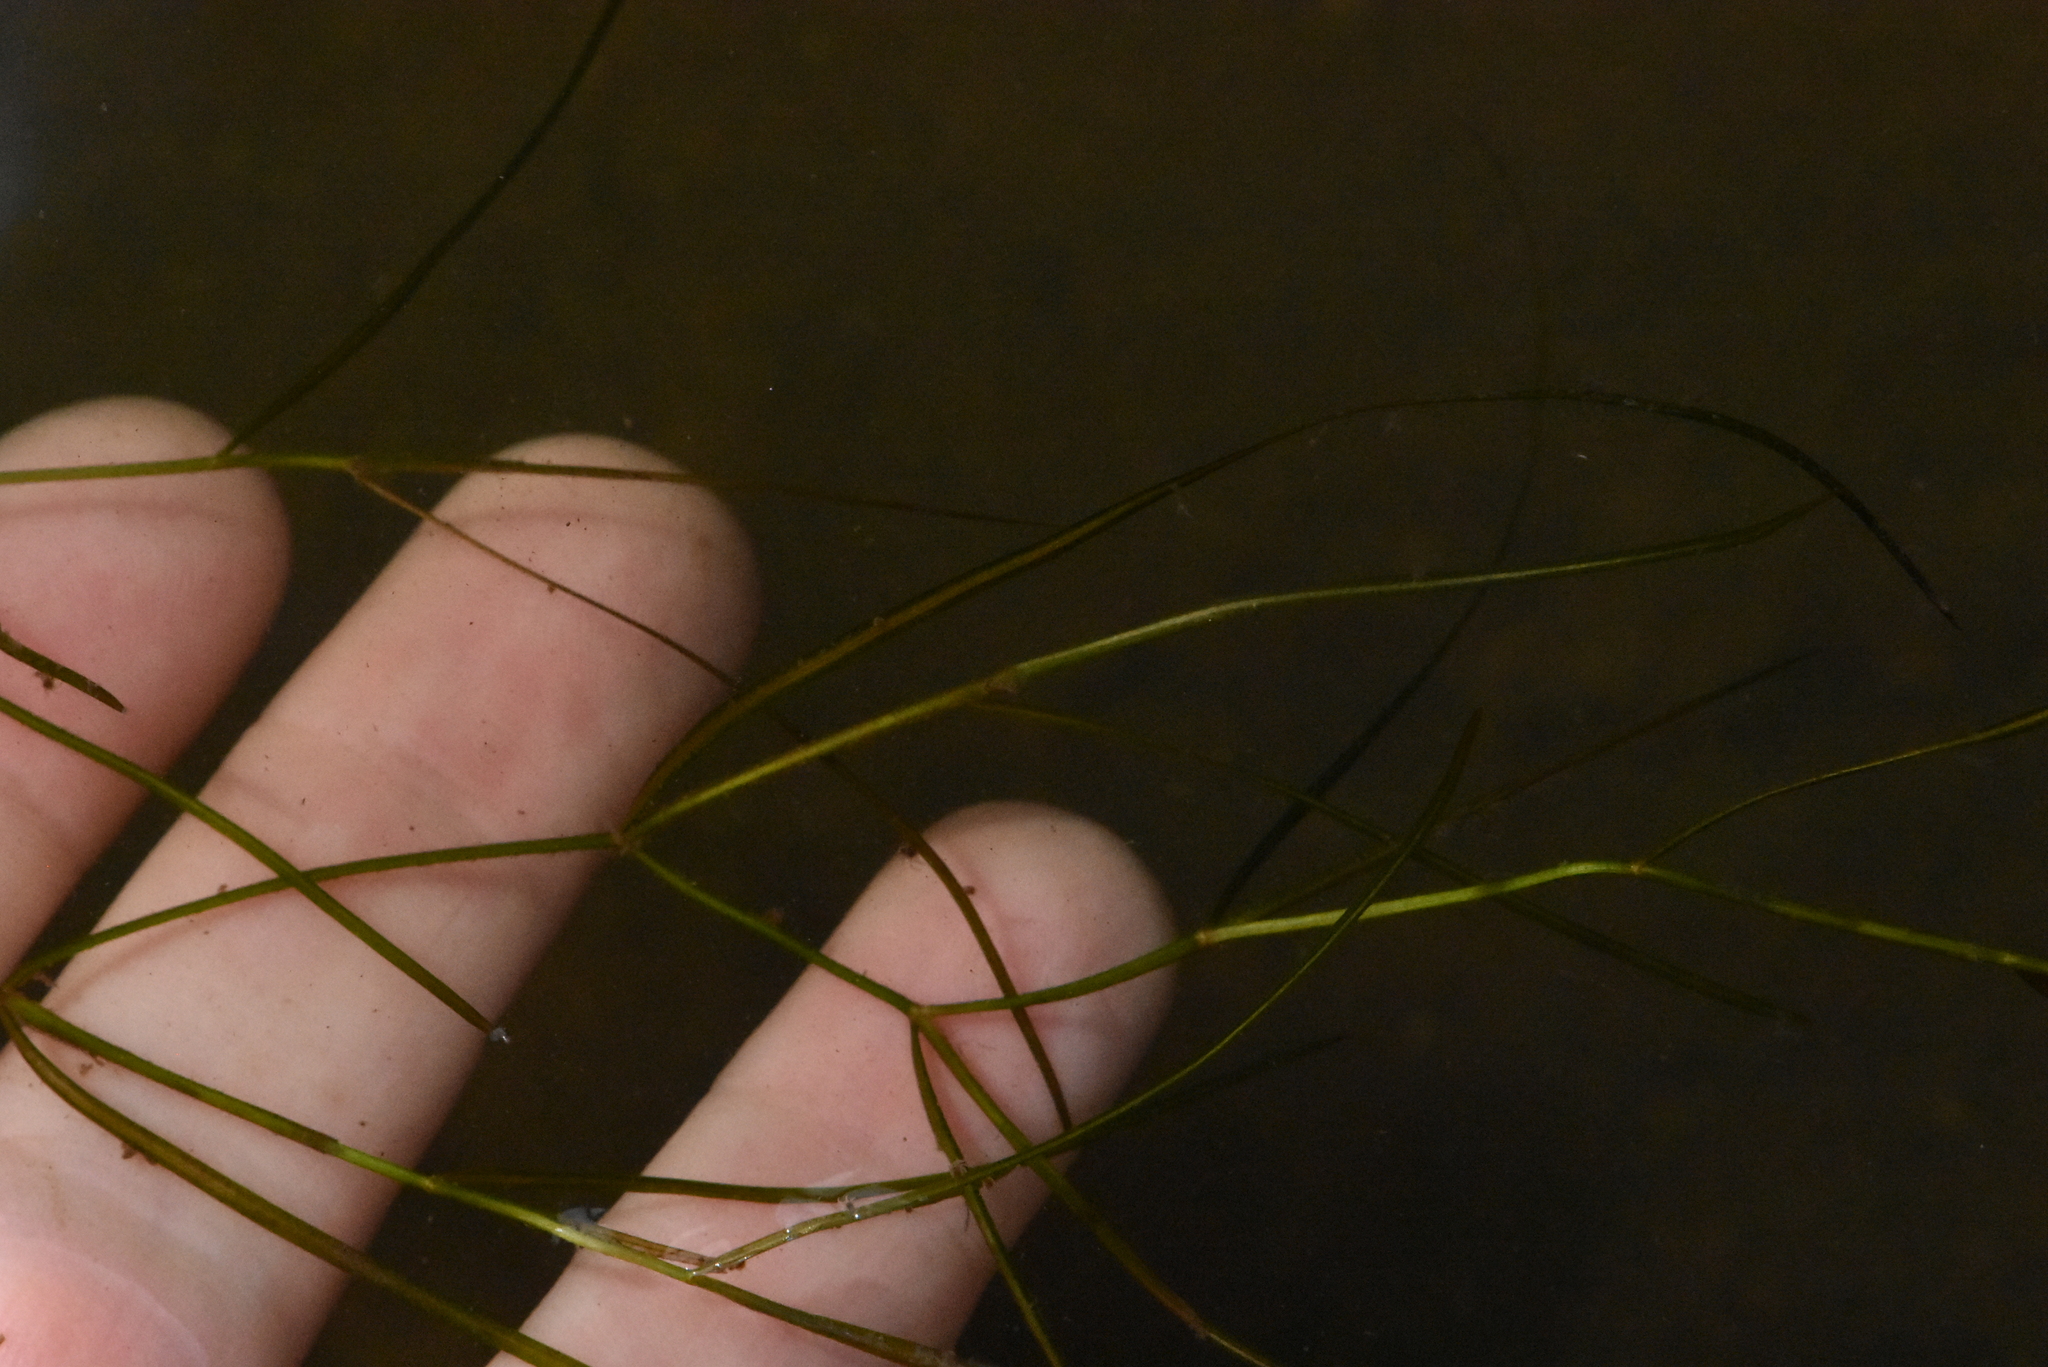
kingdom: Plantae
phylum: Tracheophyta
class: Liliopsida
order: Alismatales
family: Potamogetonaceae
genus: Stuckenia
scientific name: Stuckenia pectinata
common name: Sago pondweed
